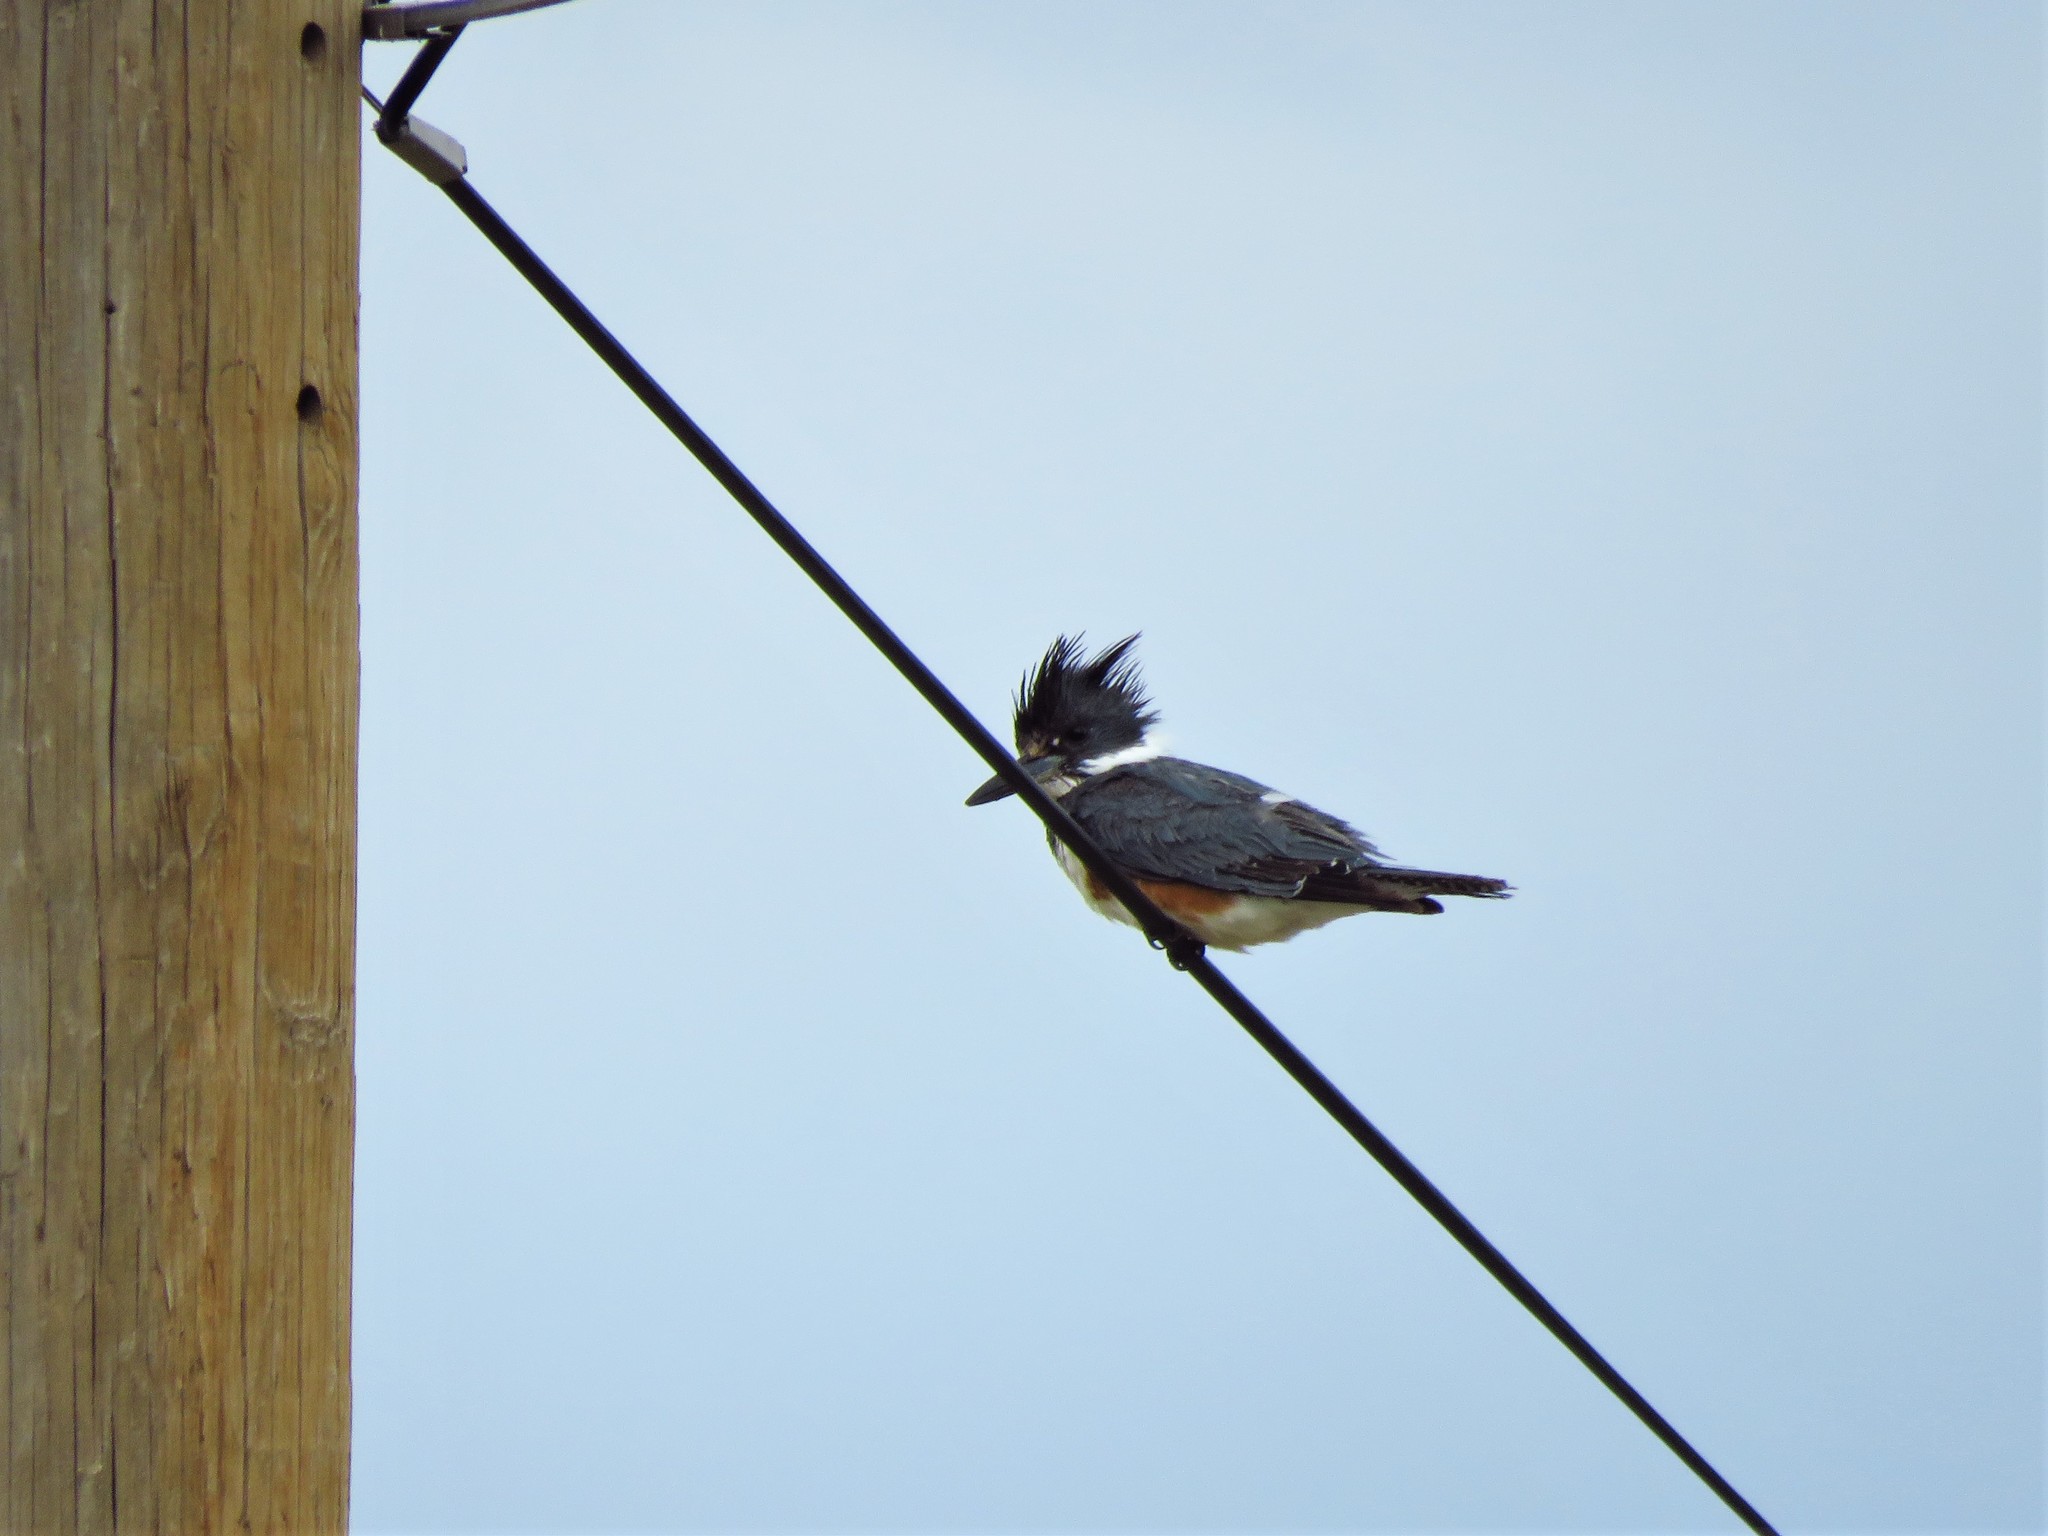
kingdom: Animalia
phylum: Chordata
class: Aves
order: Coraciiformes
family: Alcedinidae
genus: Megaceryle
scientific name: Megaceryle alcyon
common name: Belted kingfisher
